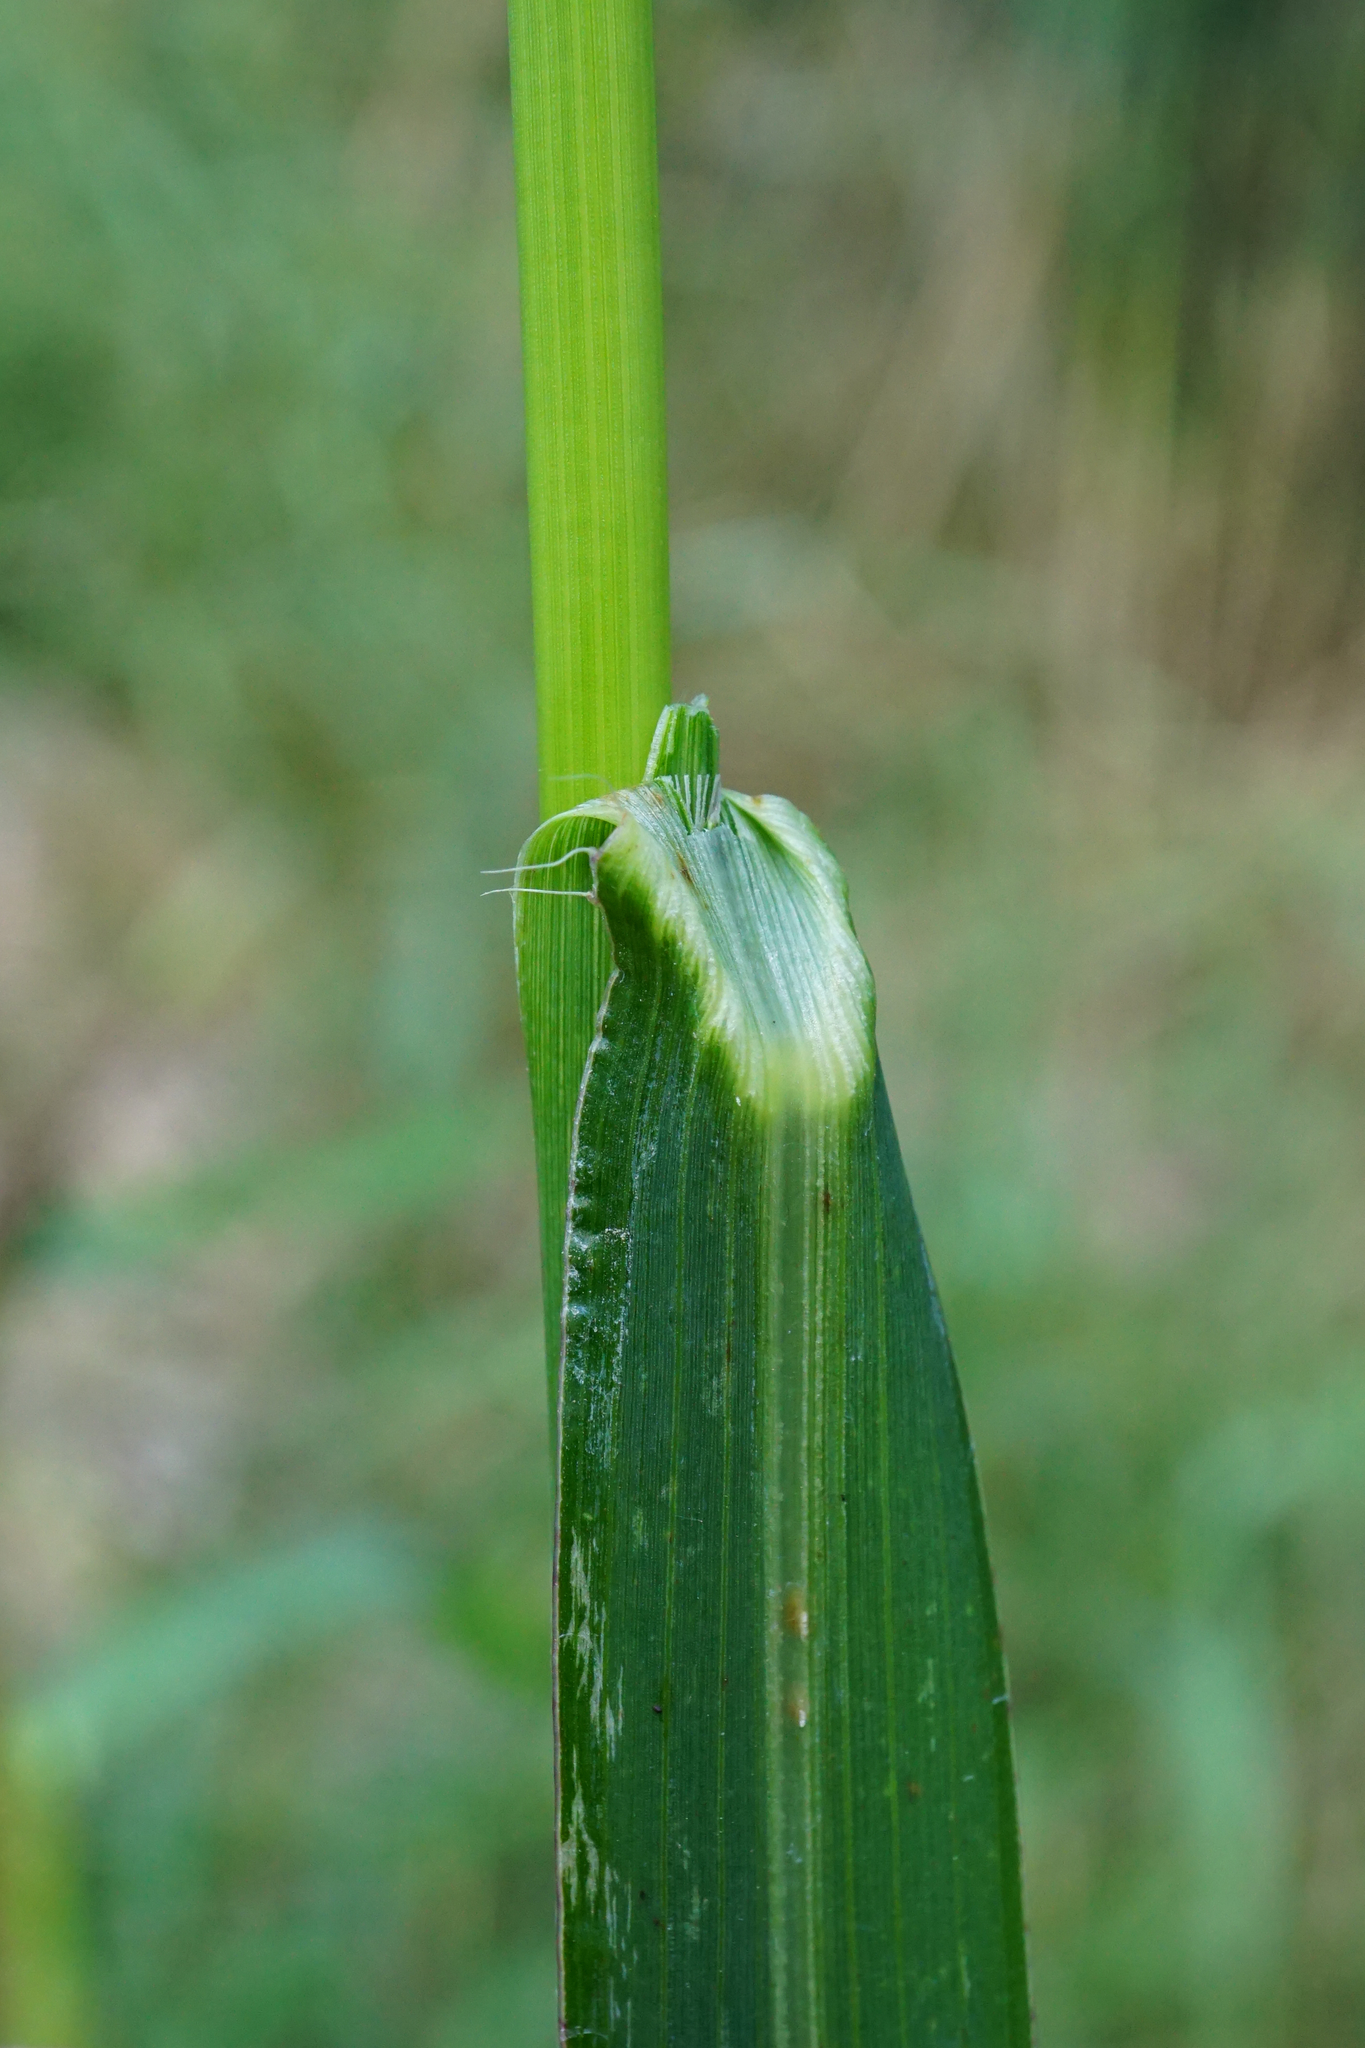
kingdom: Plantae
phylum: Tracheophyta
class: Liliopsida
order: Poales
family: Poaceae
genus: Echinochloa
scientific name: Echinochloa crus-galli
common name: Cockspur
